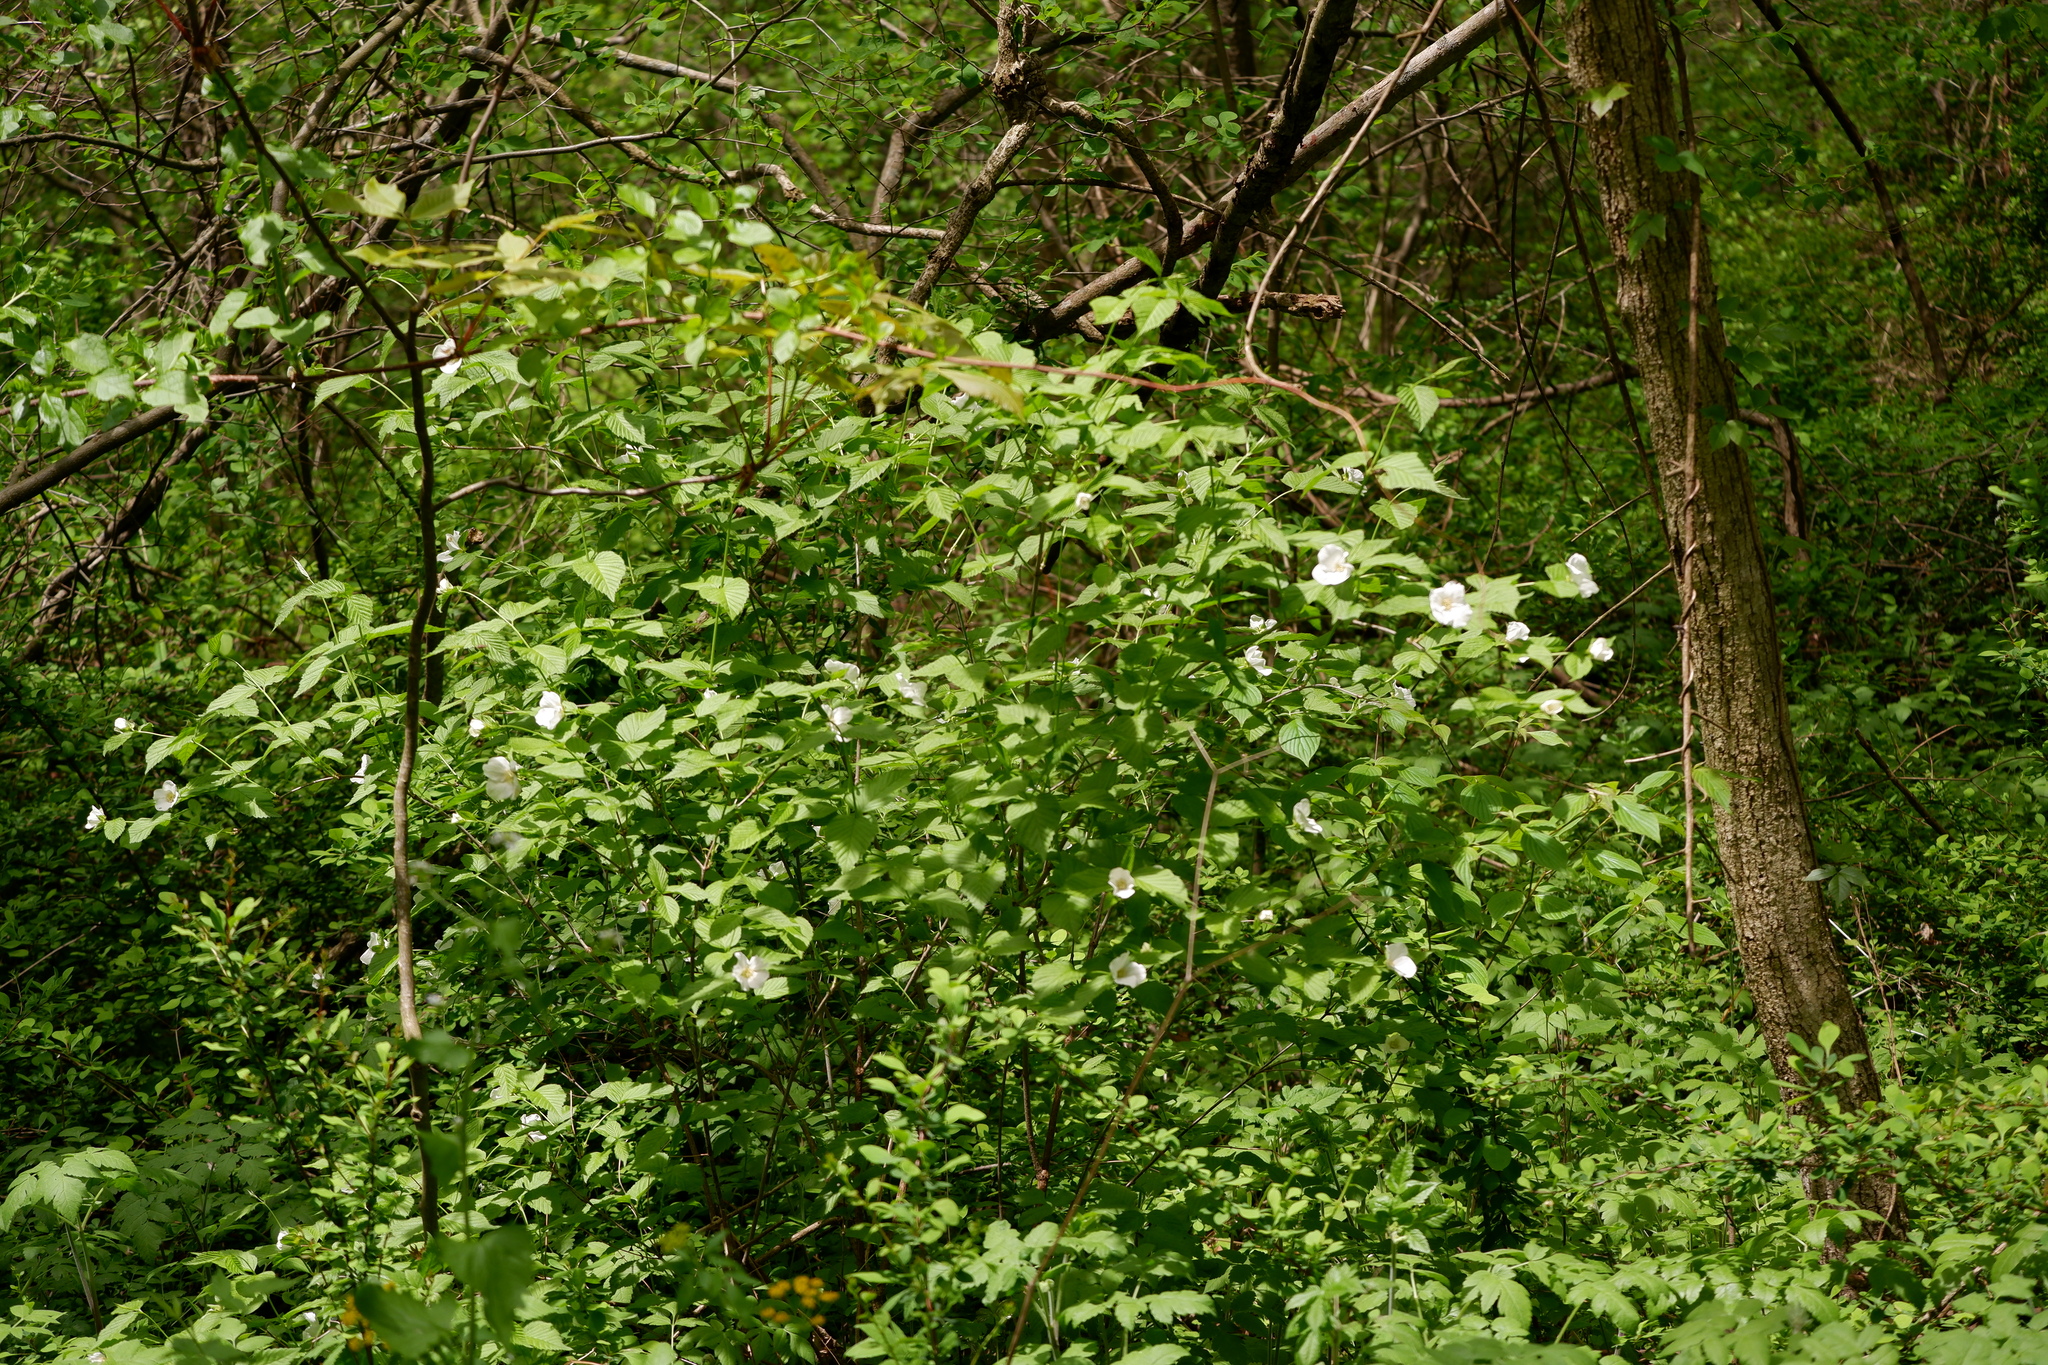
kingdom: Plantae
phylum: Tracheophyta
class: Magnoliopsida
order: Rosales
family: Rosaceae
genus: Rhodotypos
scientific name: Rhodotypos scandens
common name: Jetbead
